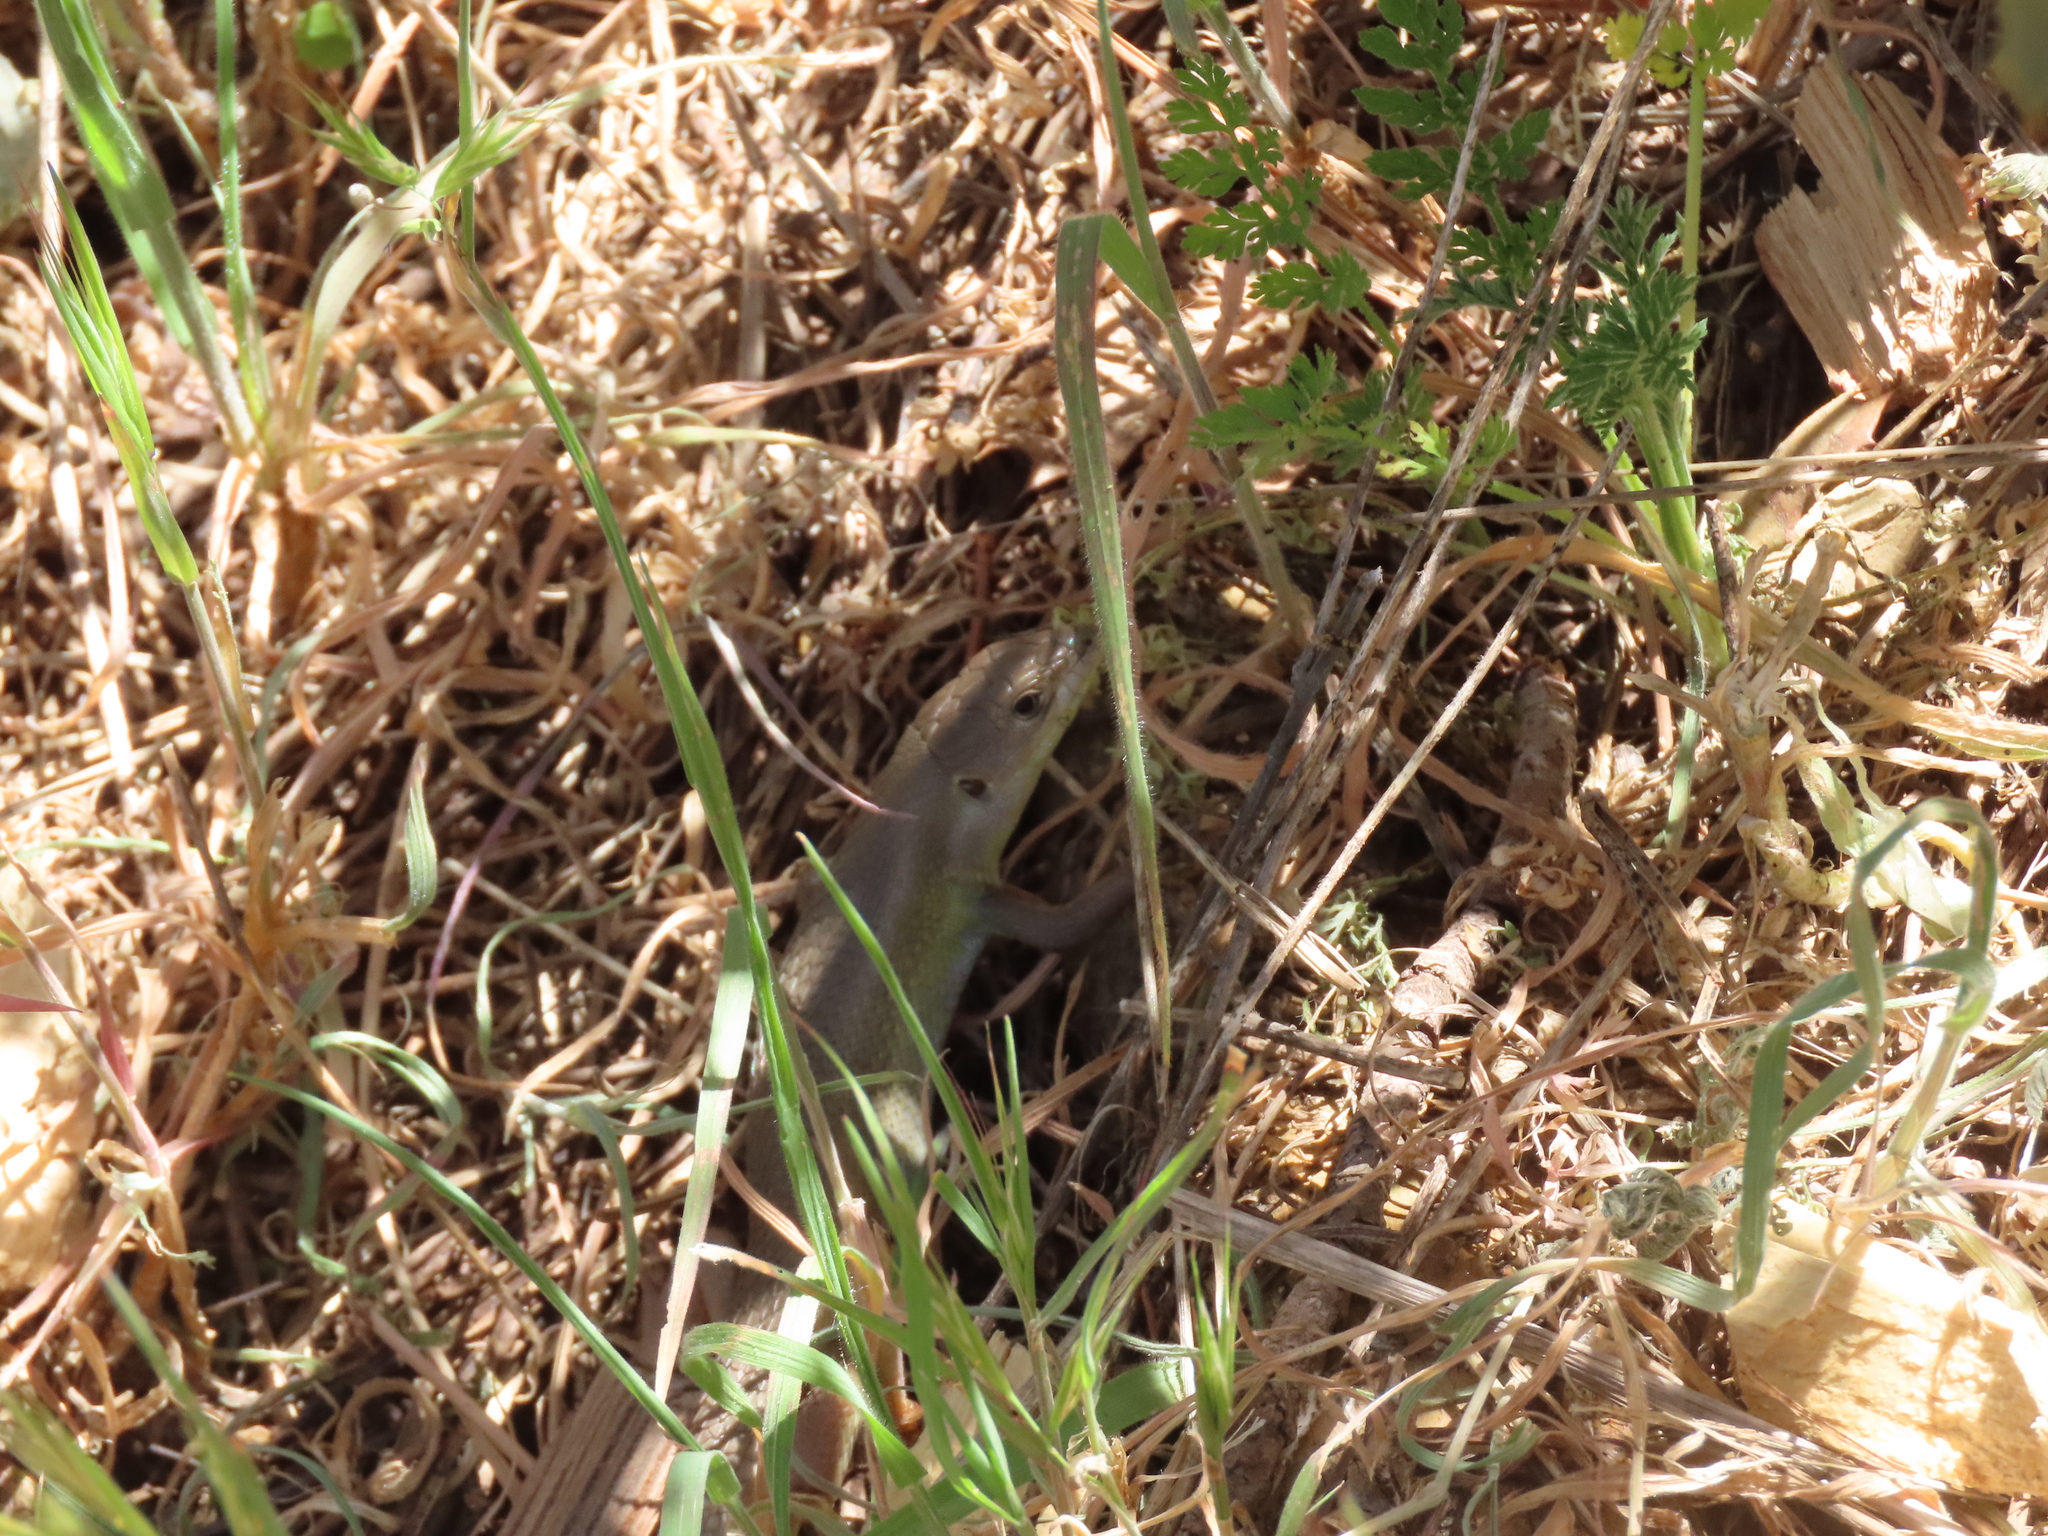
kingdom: Animalia
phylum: Chordata
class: Squamata
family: Lacertidae
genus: Psammodromus
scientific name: Psammodromus algirus
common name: Algerian psammodromus
